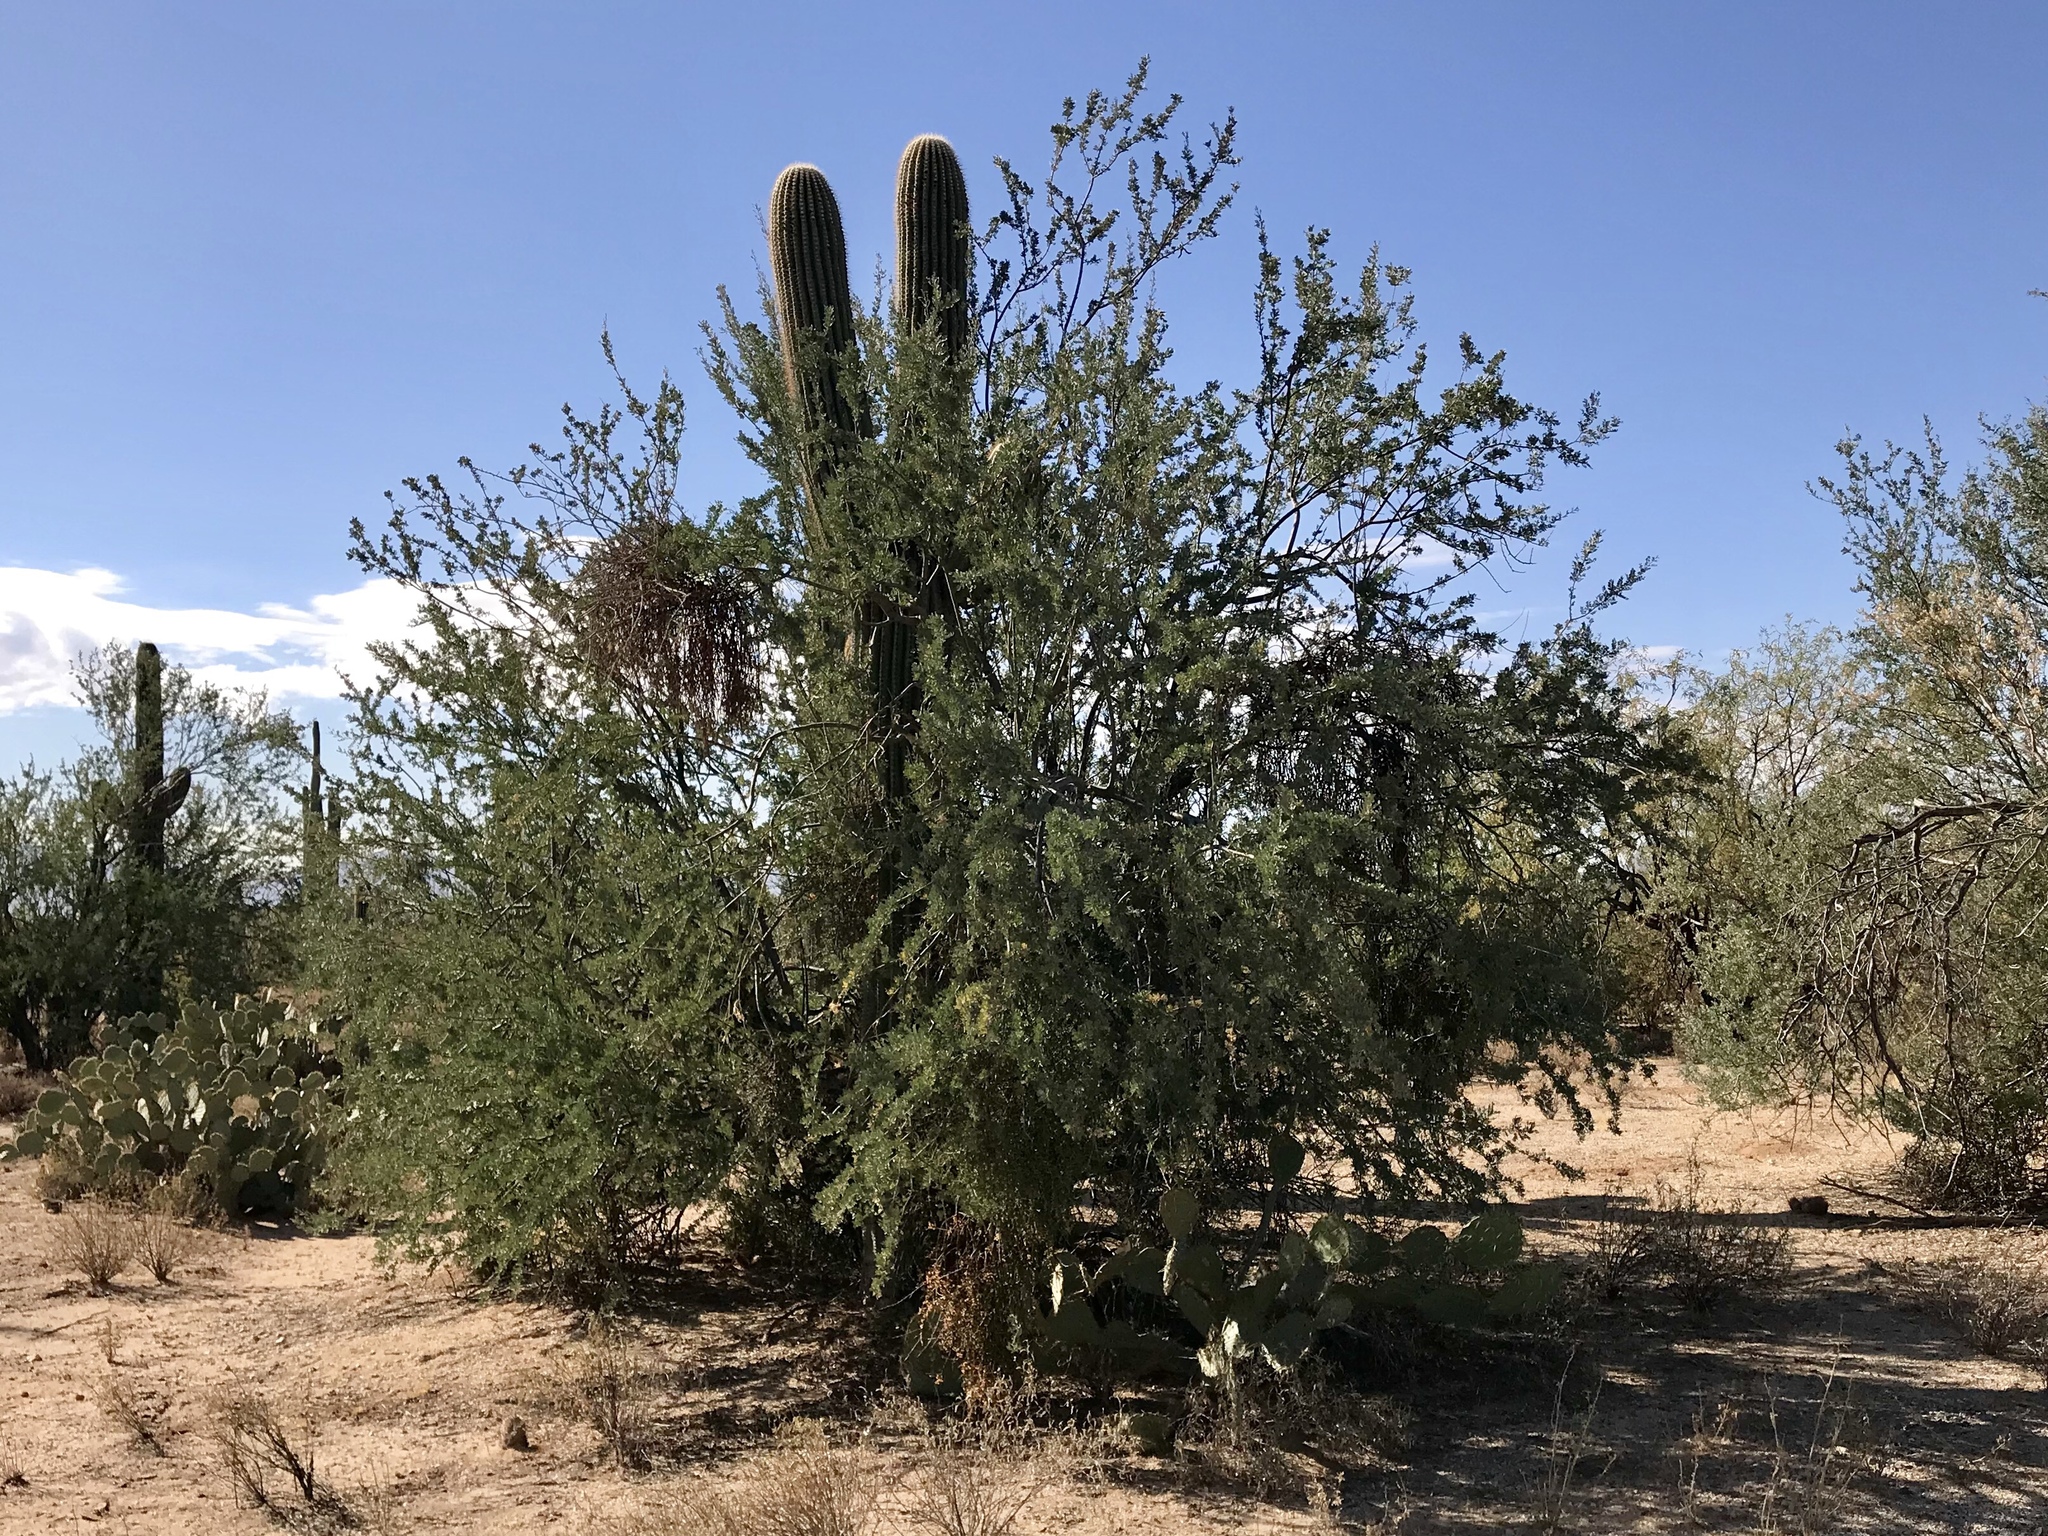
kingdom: Plantae
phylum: Tracheophyta
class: Magnoliopsida
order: Fabales
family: Fabaceae
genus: Olneya
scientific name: Olneya tesota
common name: Desert ironwood
